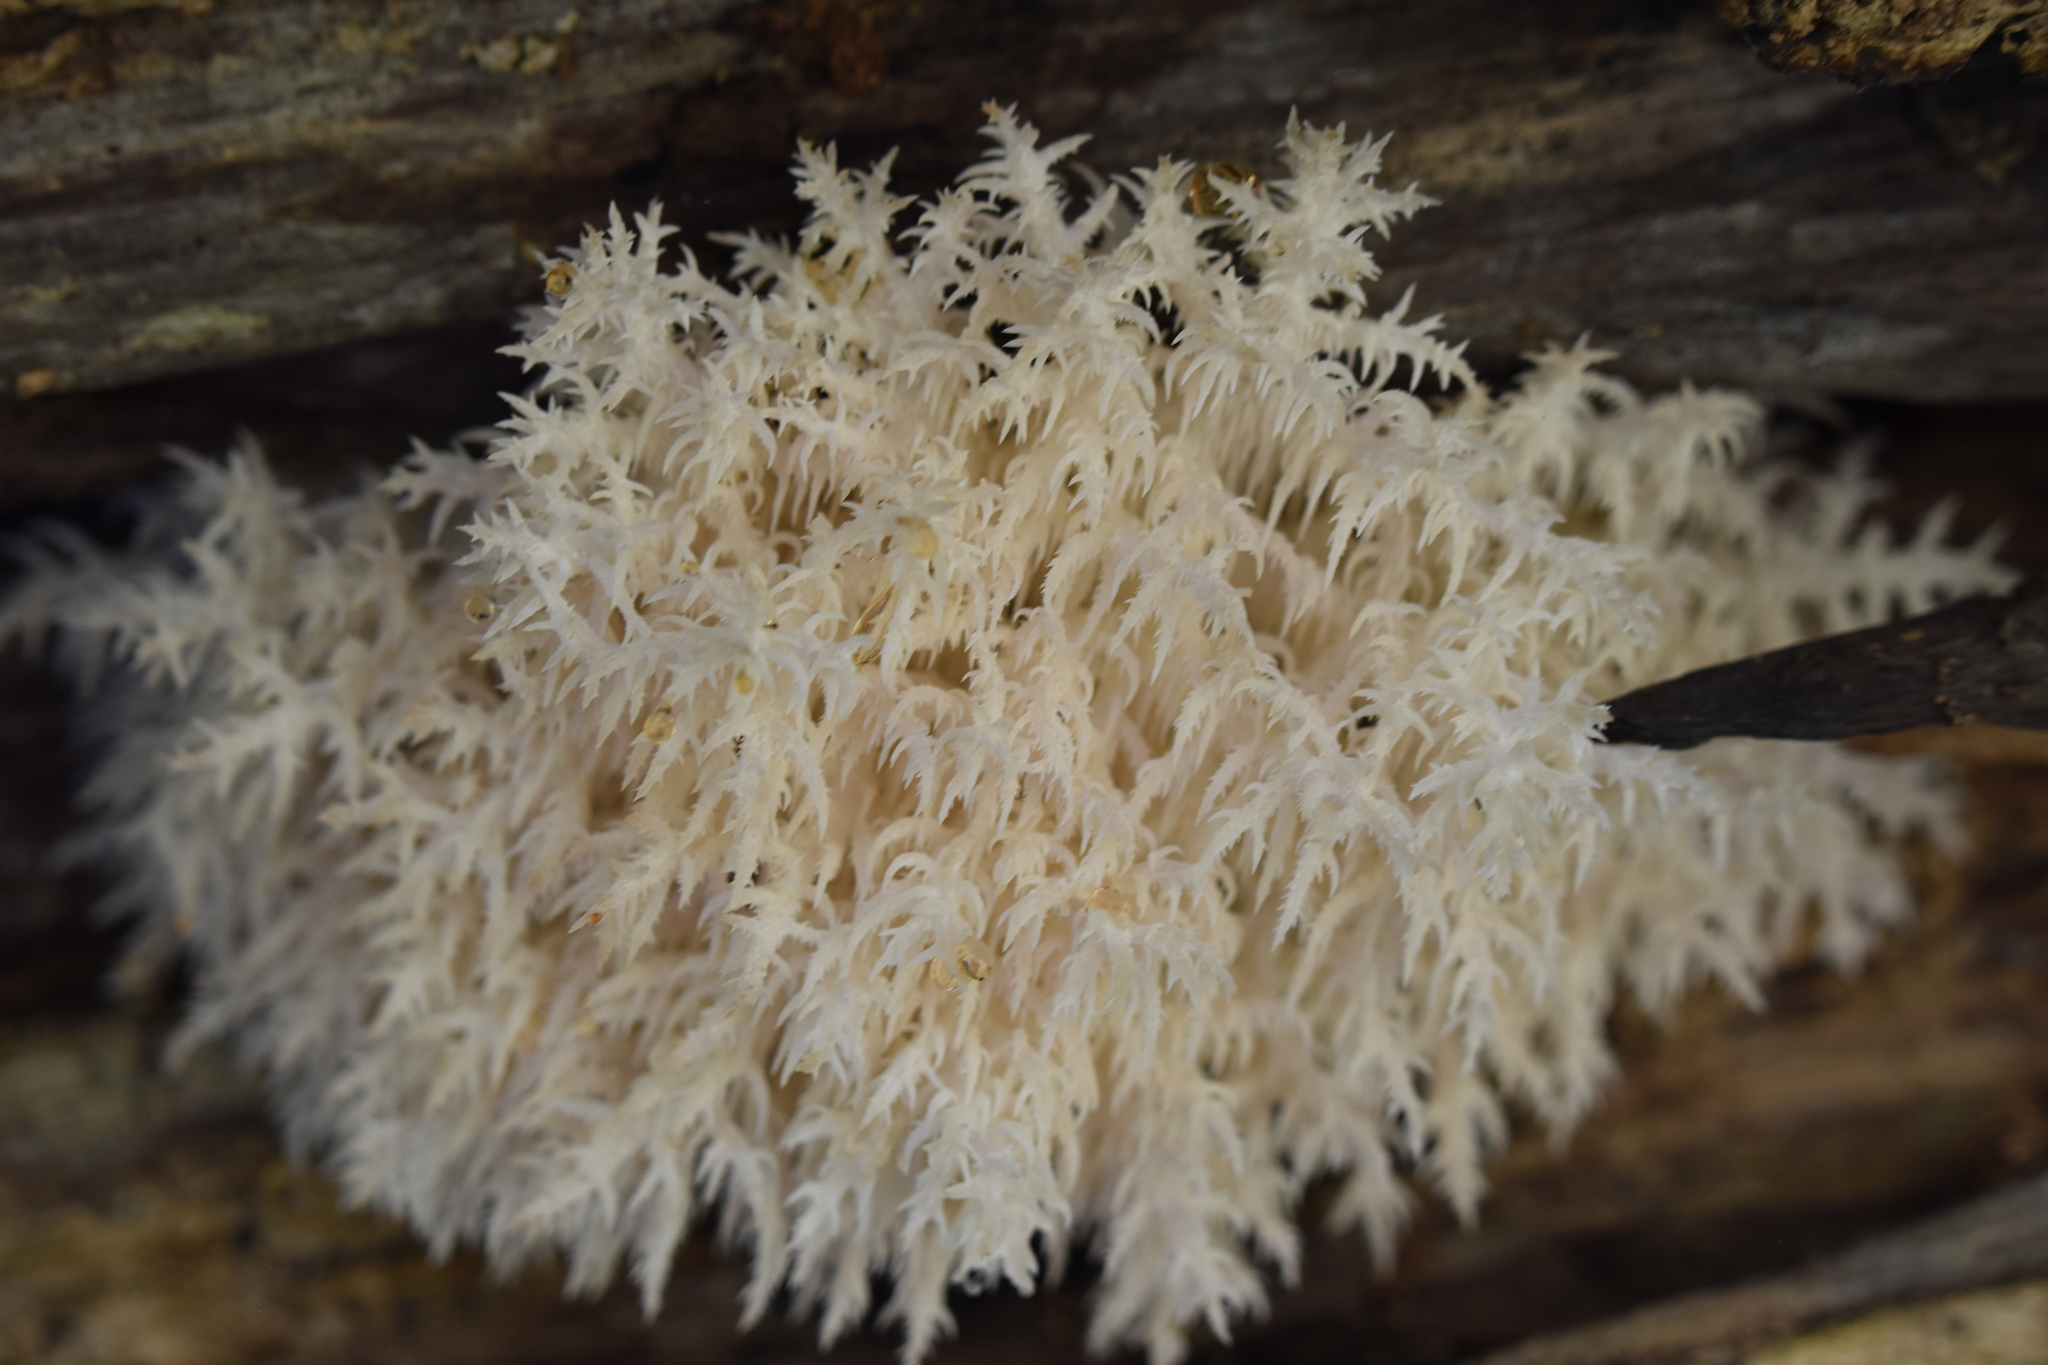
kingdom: Fungi
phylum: Basidiomycota
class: Agaricomycetes
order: Russulales
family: Hericiaceae
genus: Hericium
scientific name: Hericium novae-zealandiae
